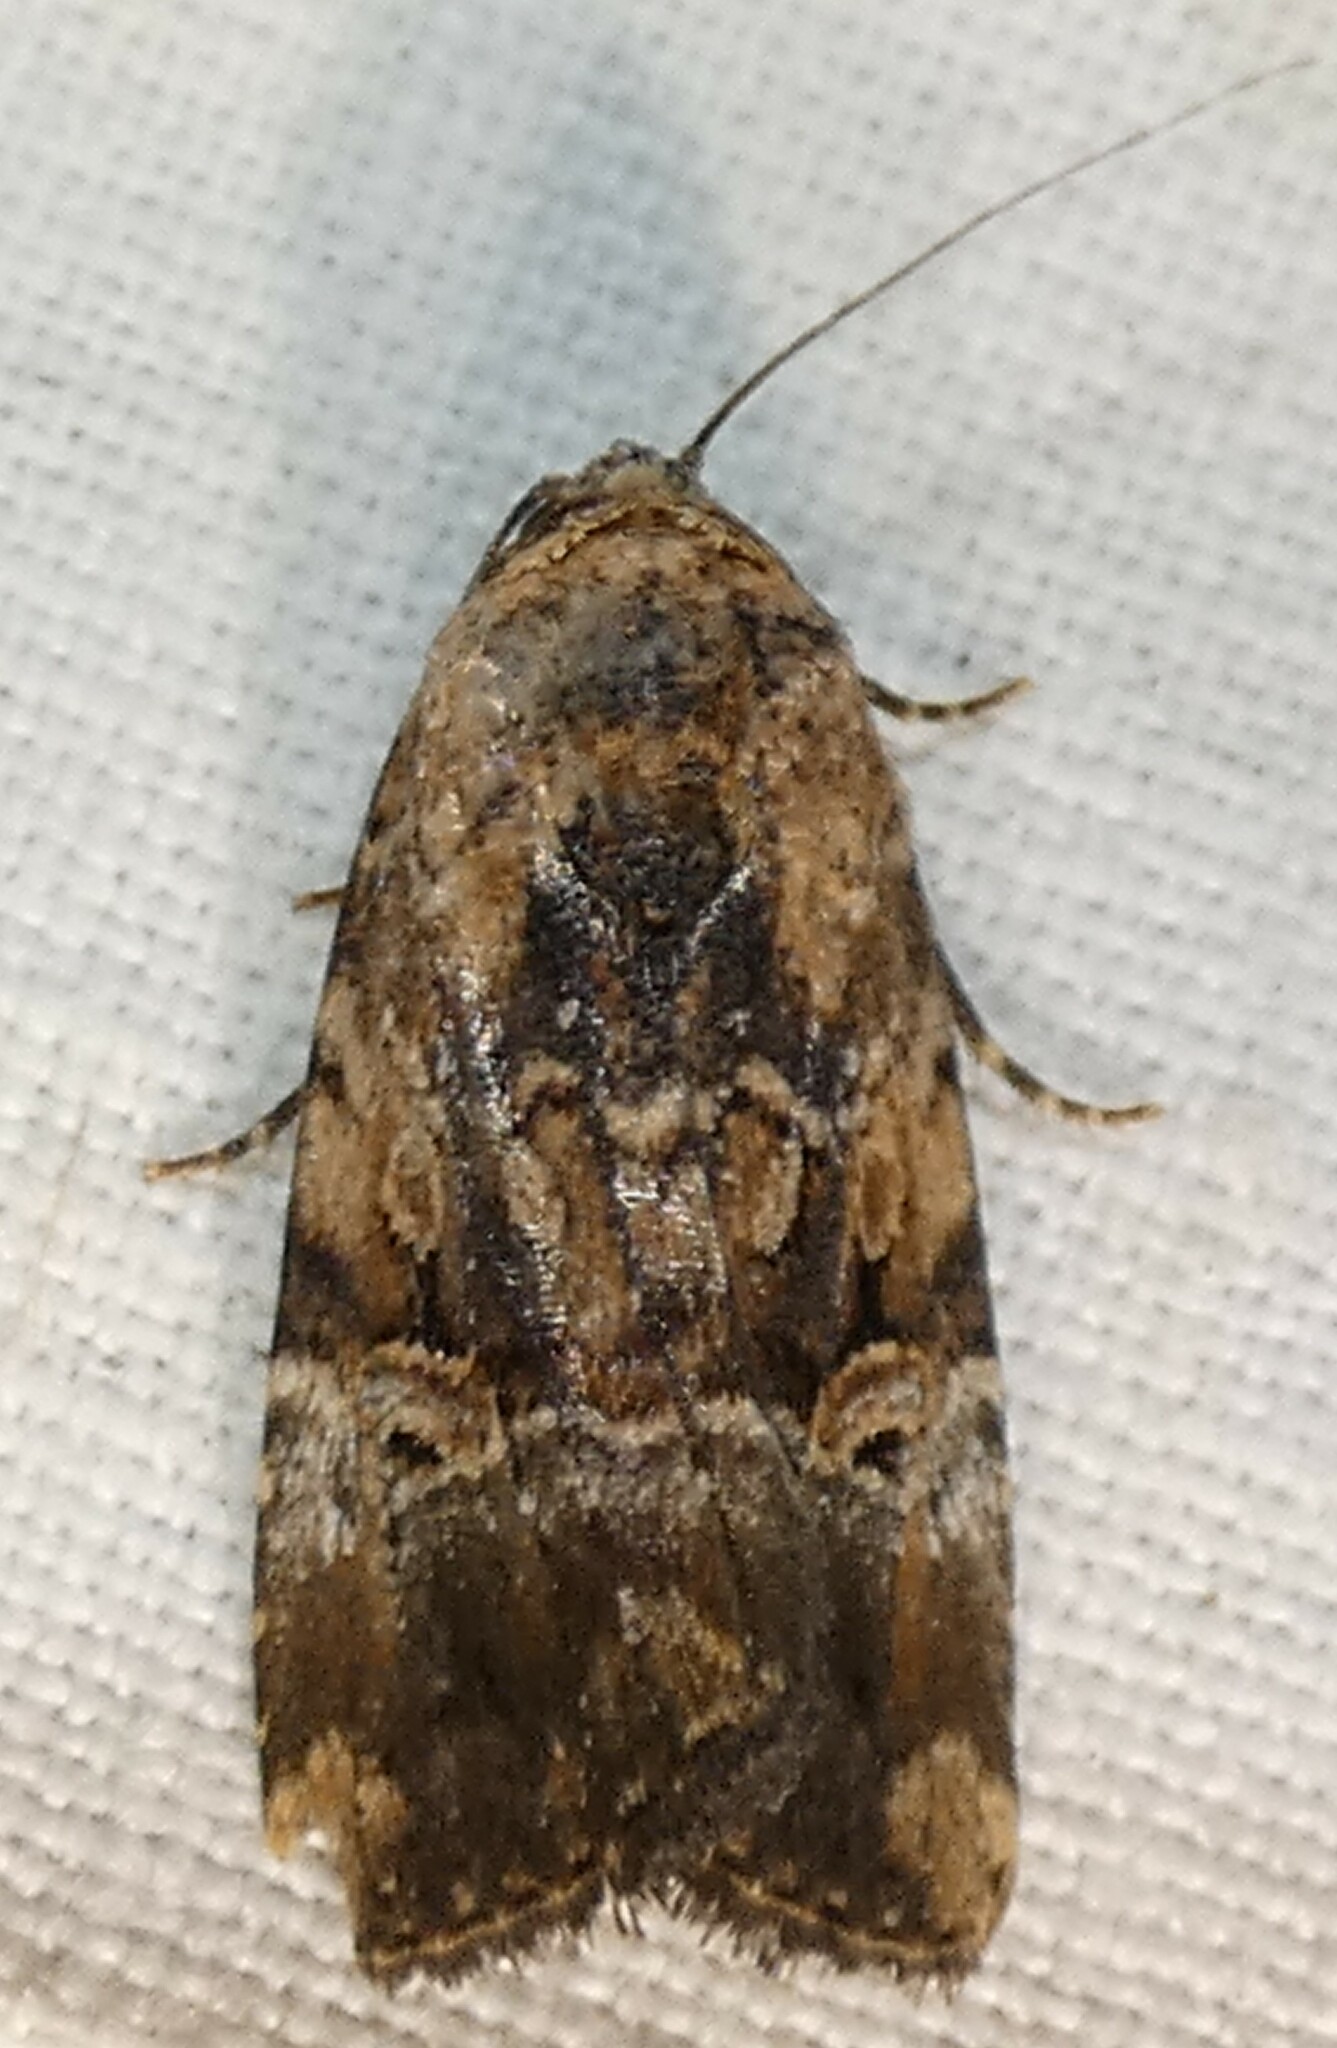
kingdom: Animalia
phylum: Arthropoda
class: Insecta
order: Lepidoptera
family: Noctuidae
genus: Elaphria
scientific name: Elaphria chalcedonia
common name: Chalcedony midget
